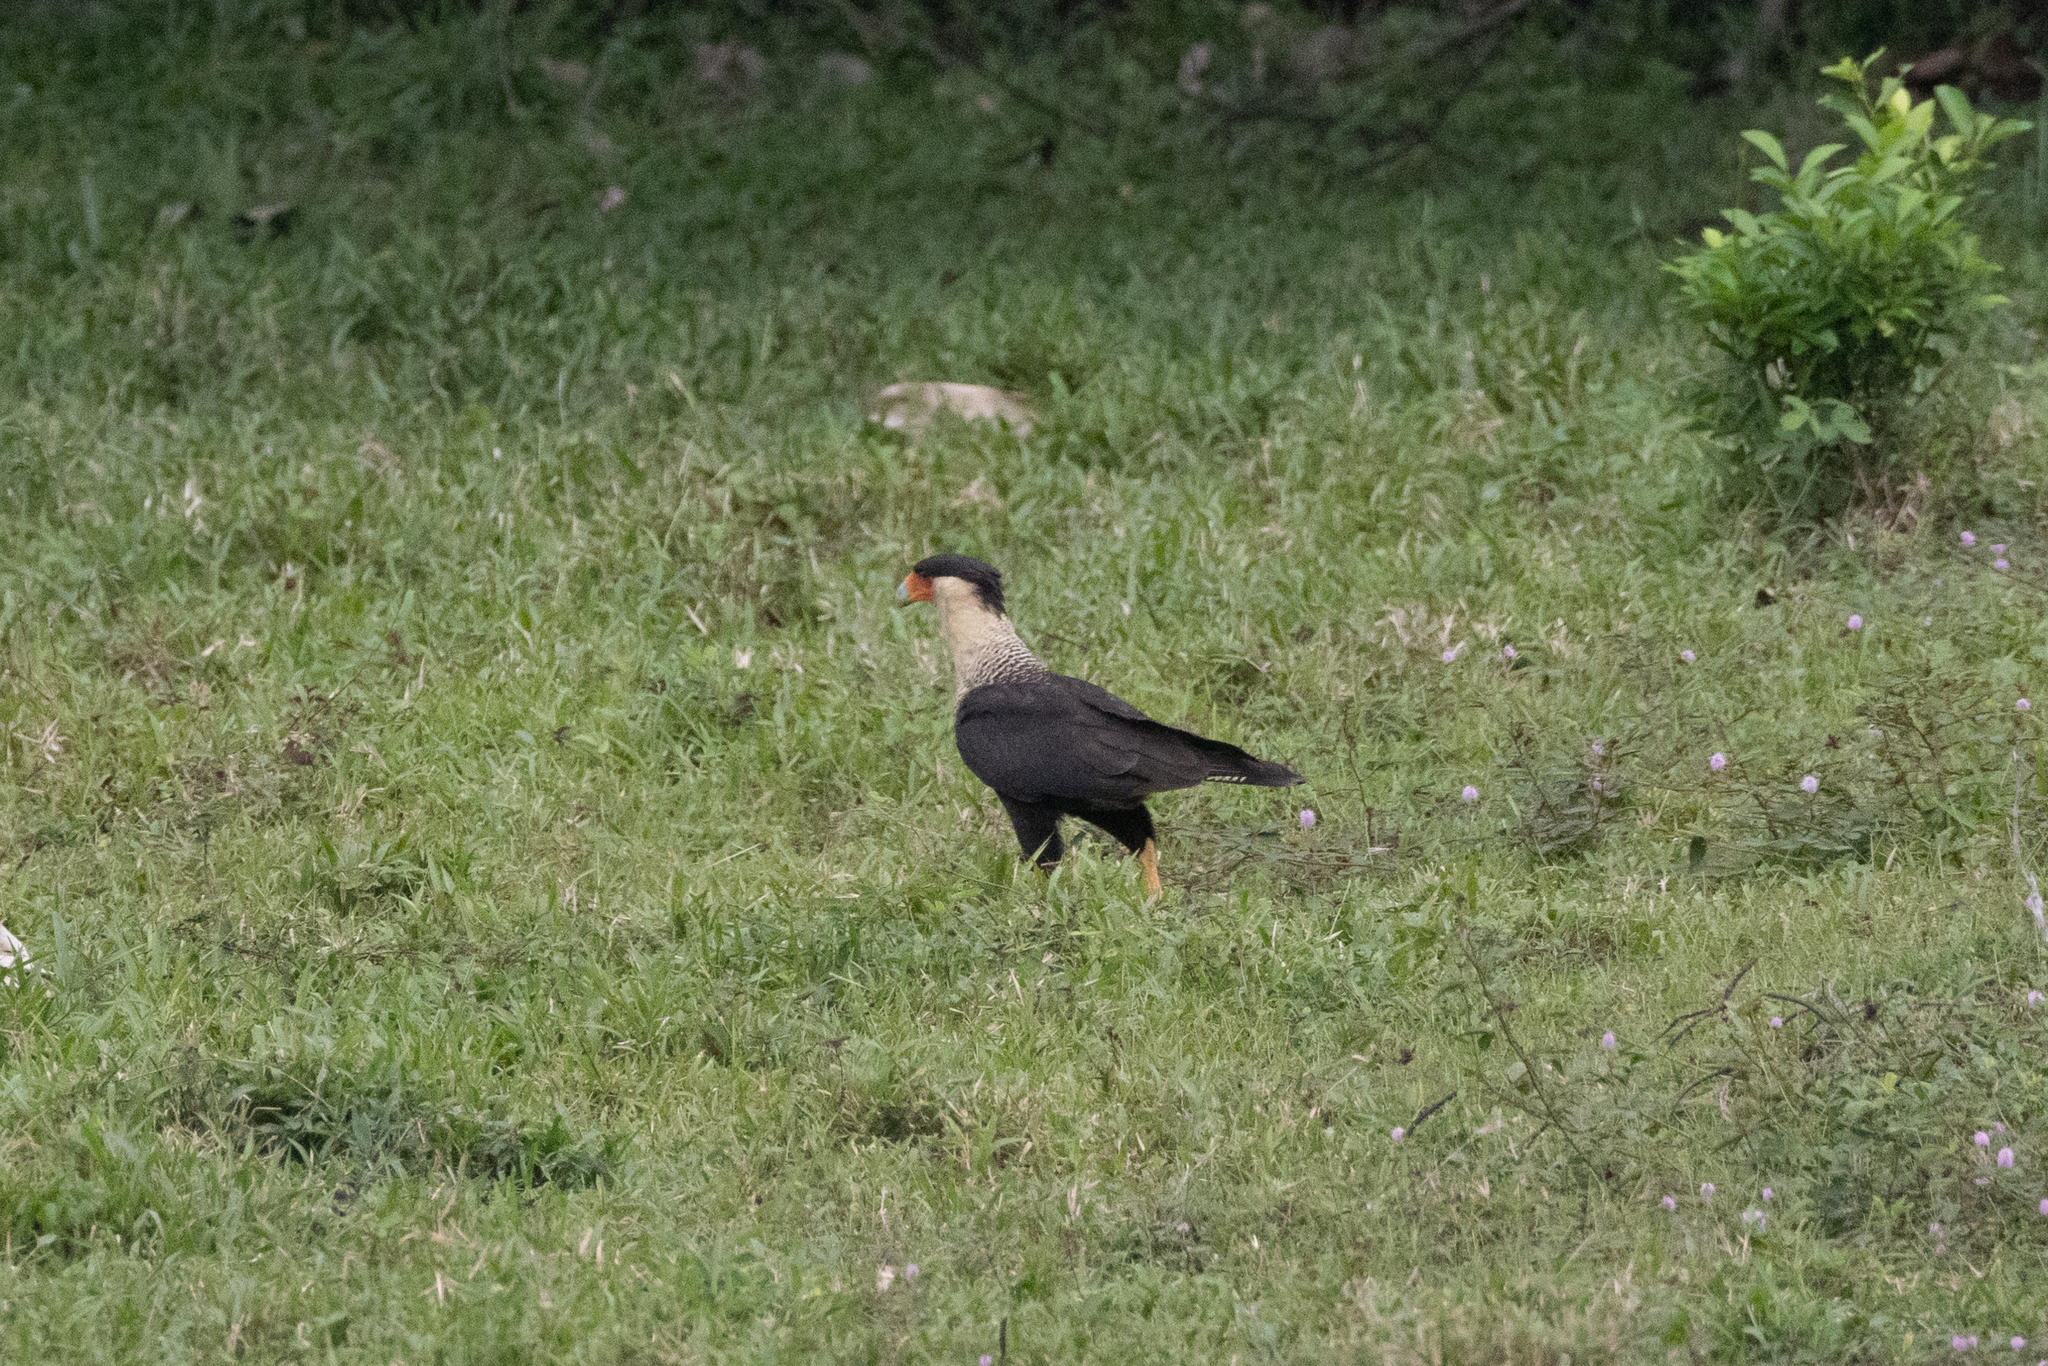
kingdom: Animalia
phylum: Chordata
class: Aves
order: Falconiformes
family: Falconidae
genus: Caracara
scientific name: Caracara plancus
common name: Southern caracara
